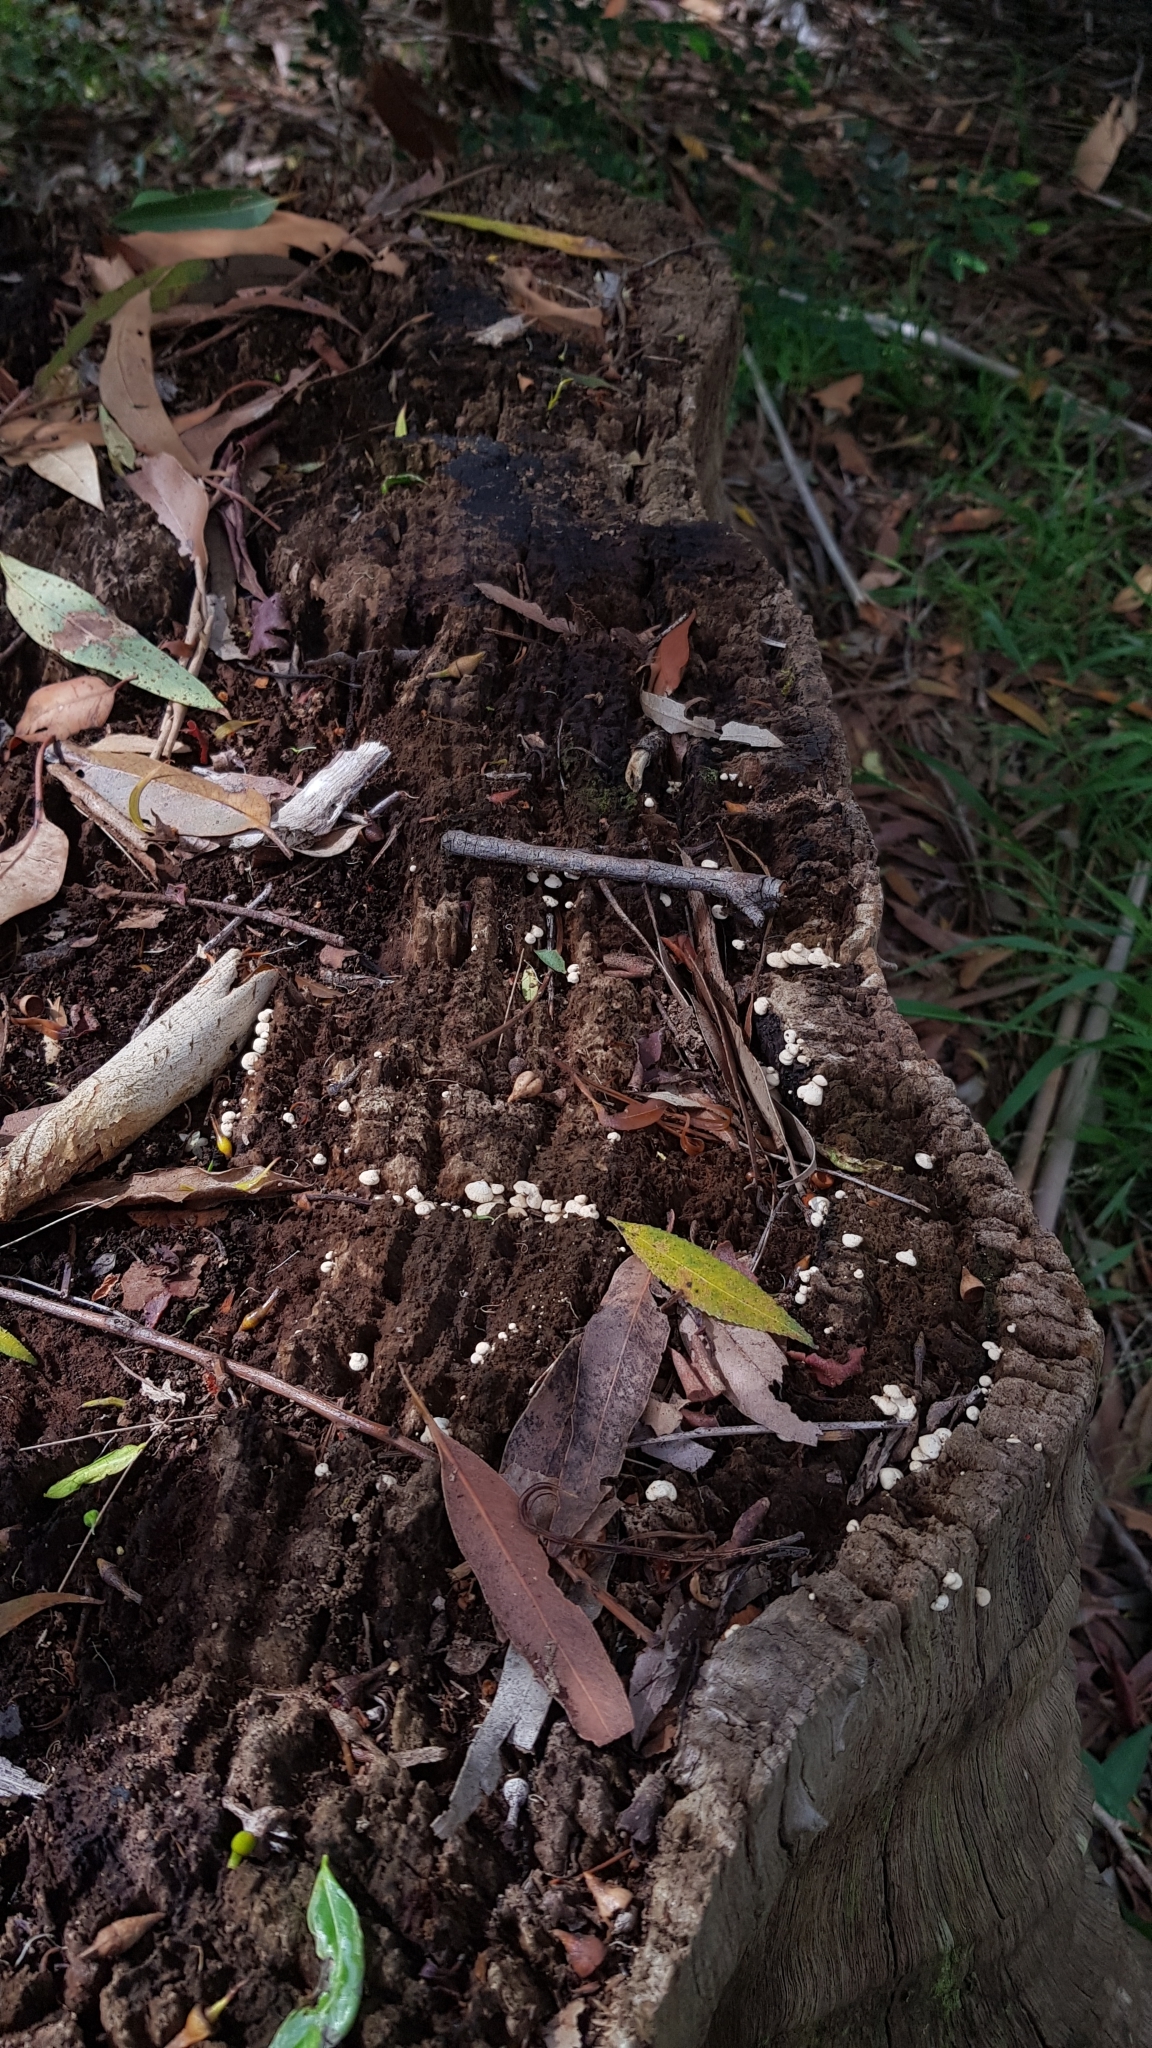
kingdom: Fungi
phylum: Basidiomycota
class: Agaricomycetes
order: Agaricales
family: Mycenaceae
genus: Panellus
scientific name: Panellus luxfilamentus
